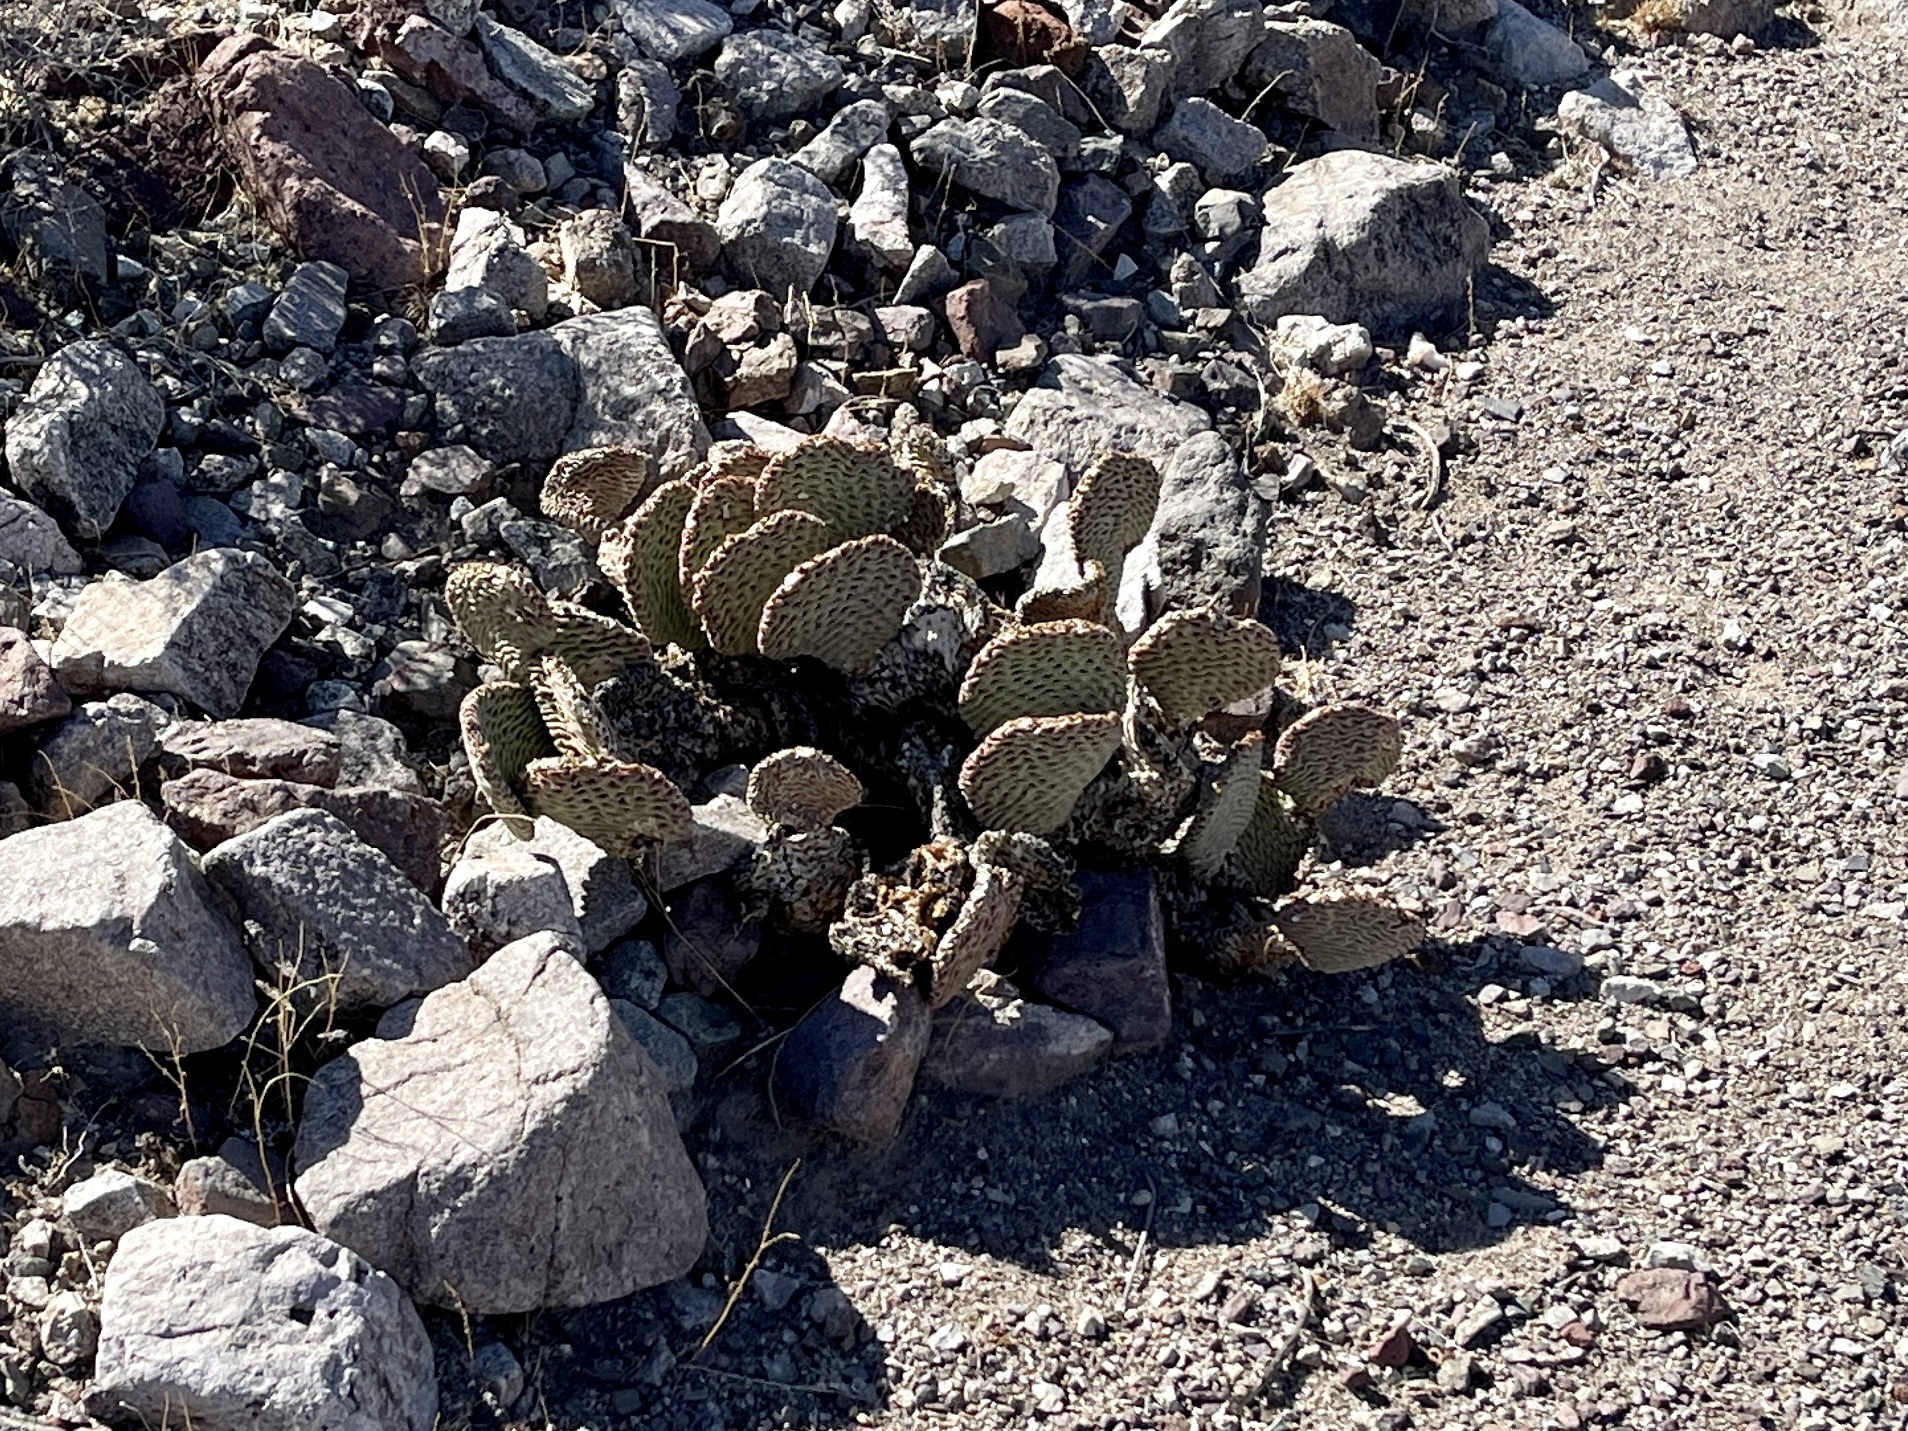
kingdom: Plantae
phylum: Tracheophyta
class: Magnoliopsida
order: Caryophyllales
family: Cactaceae
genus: Opuntia
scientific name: Opuntia basilaris
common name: Beavertail prickly-pear
